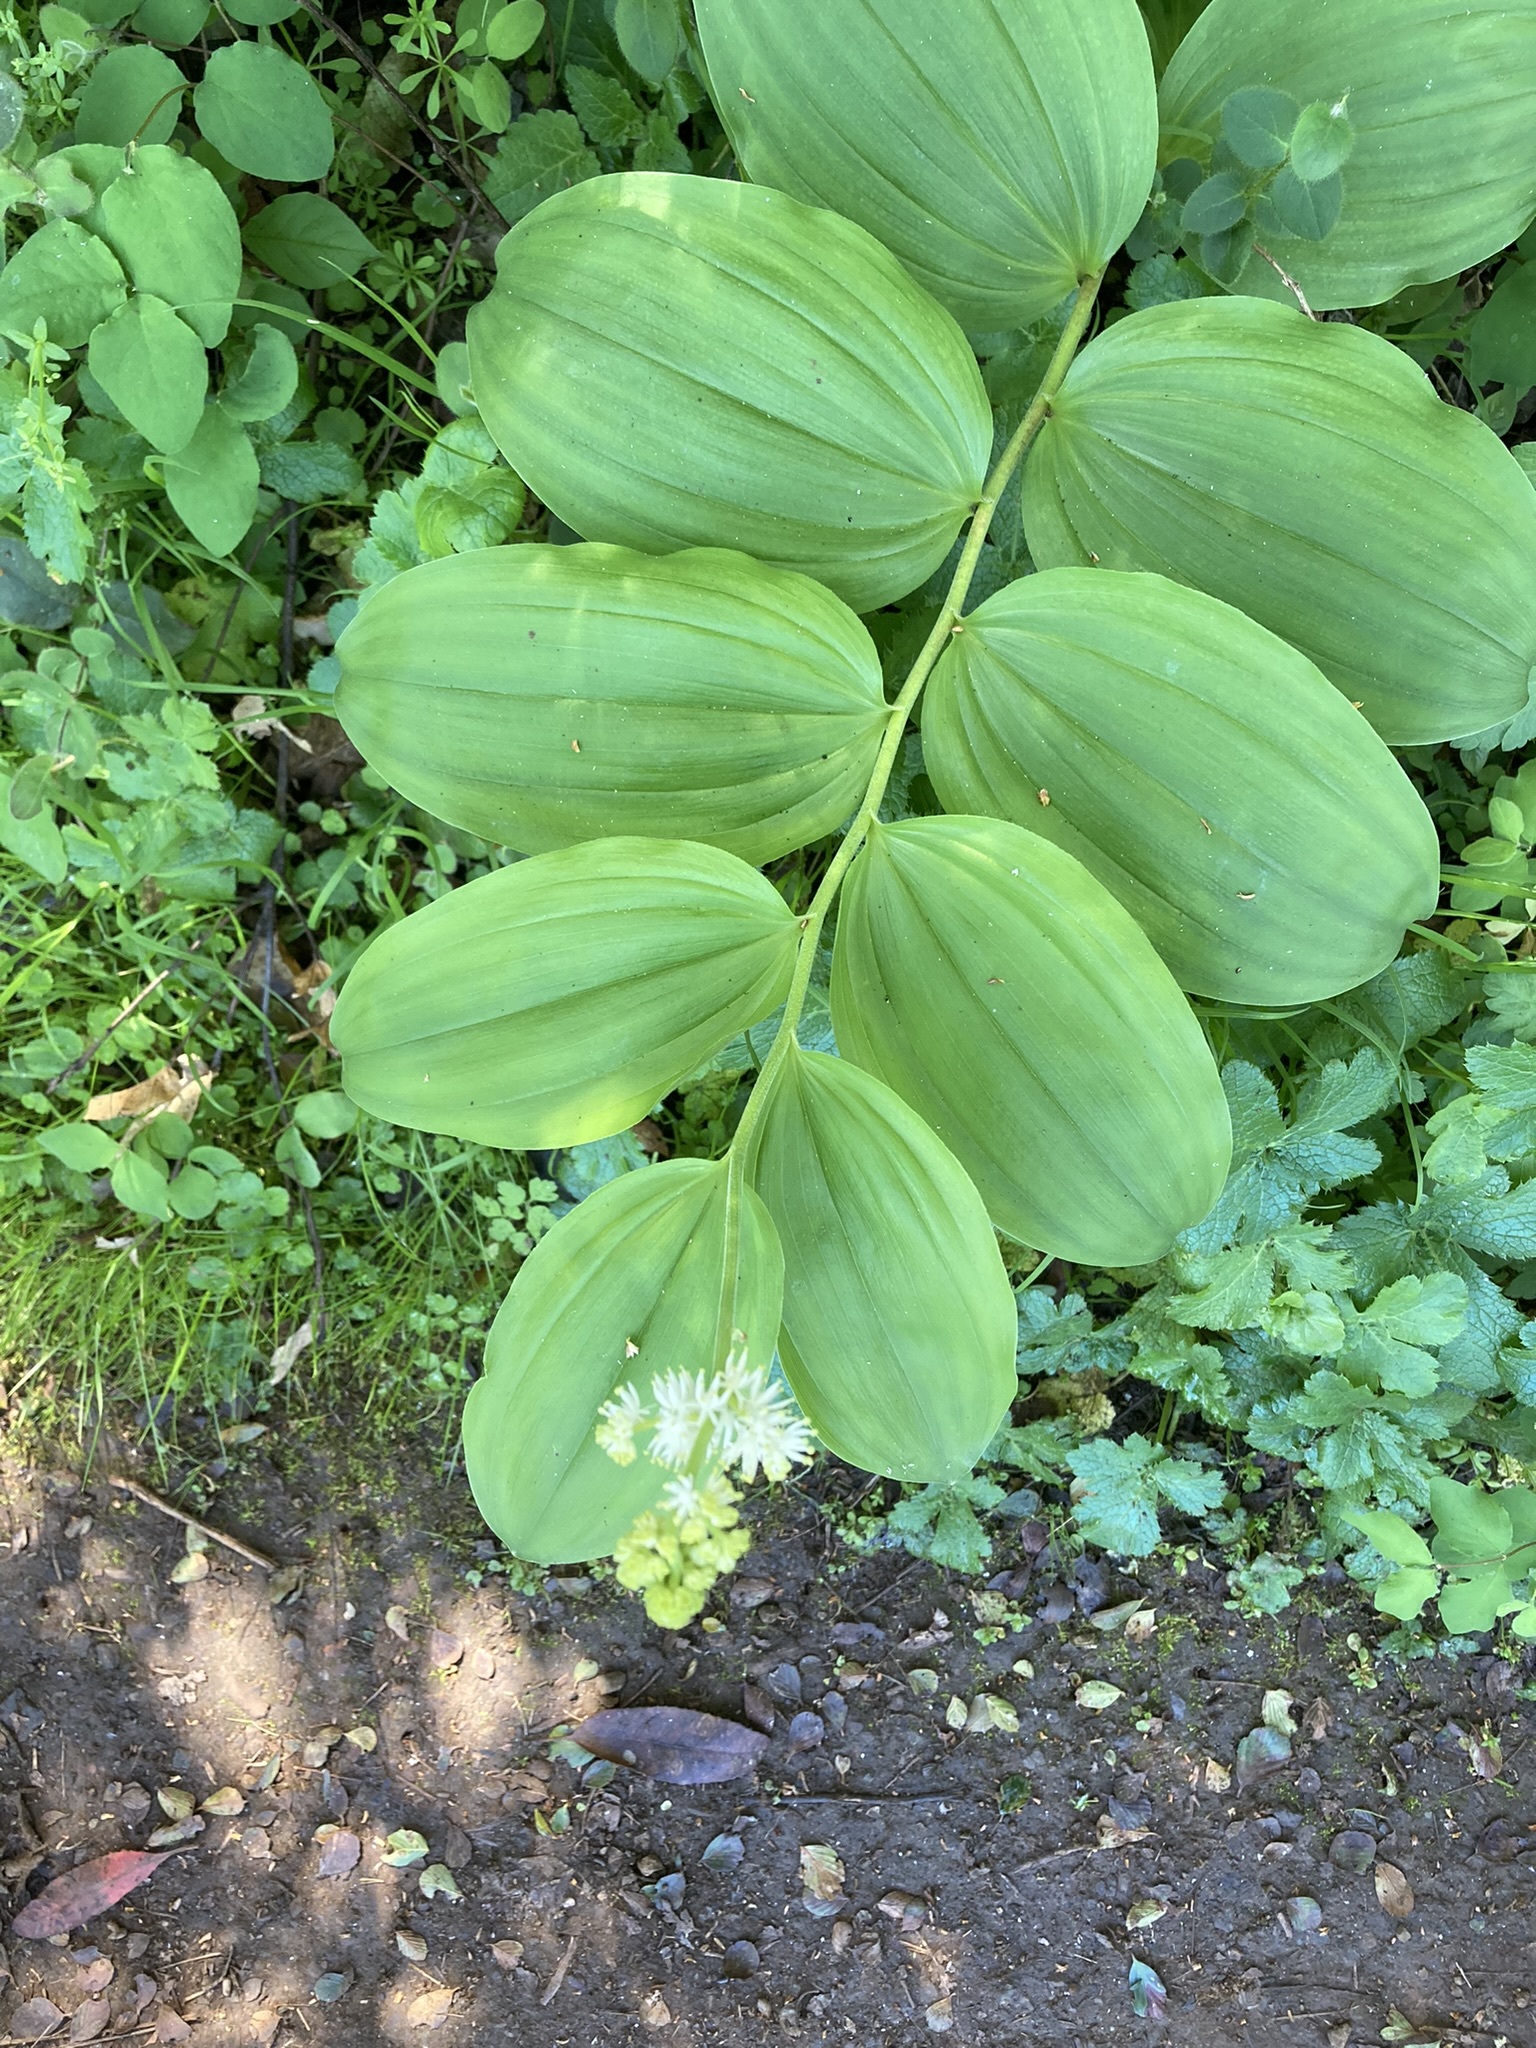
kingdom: Plantae
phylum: Tracheophyta
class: Liliopsida
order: Asparagales
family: Asparagaceae
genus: Maianthemum
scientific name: Maianthemum racemosum
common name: False spikenard
